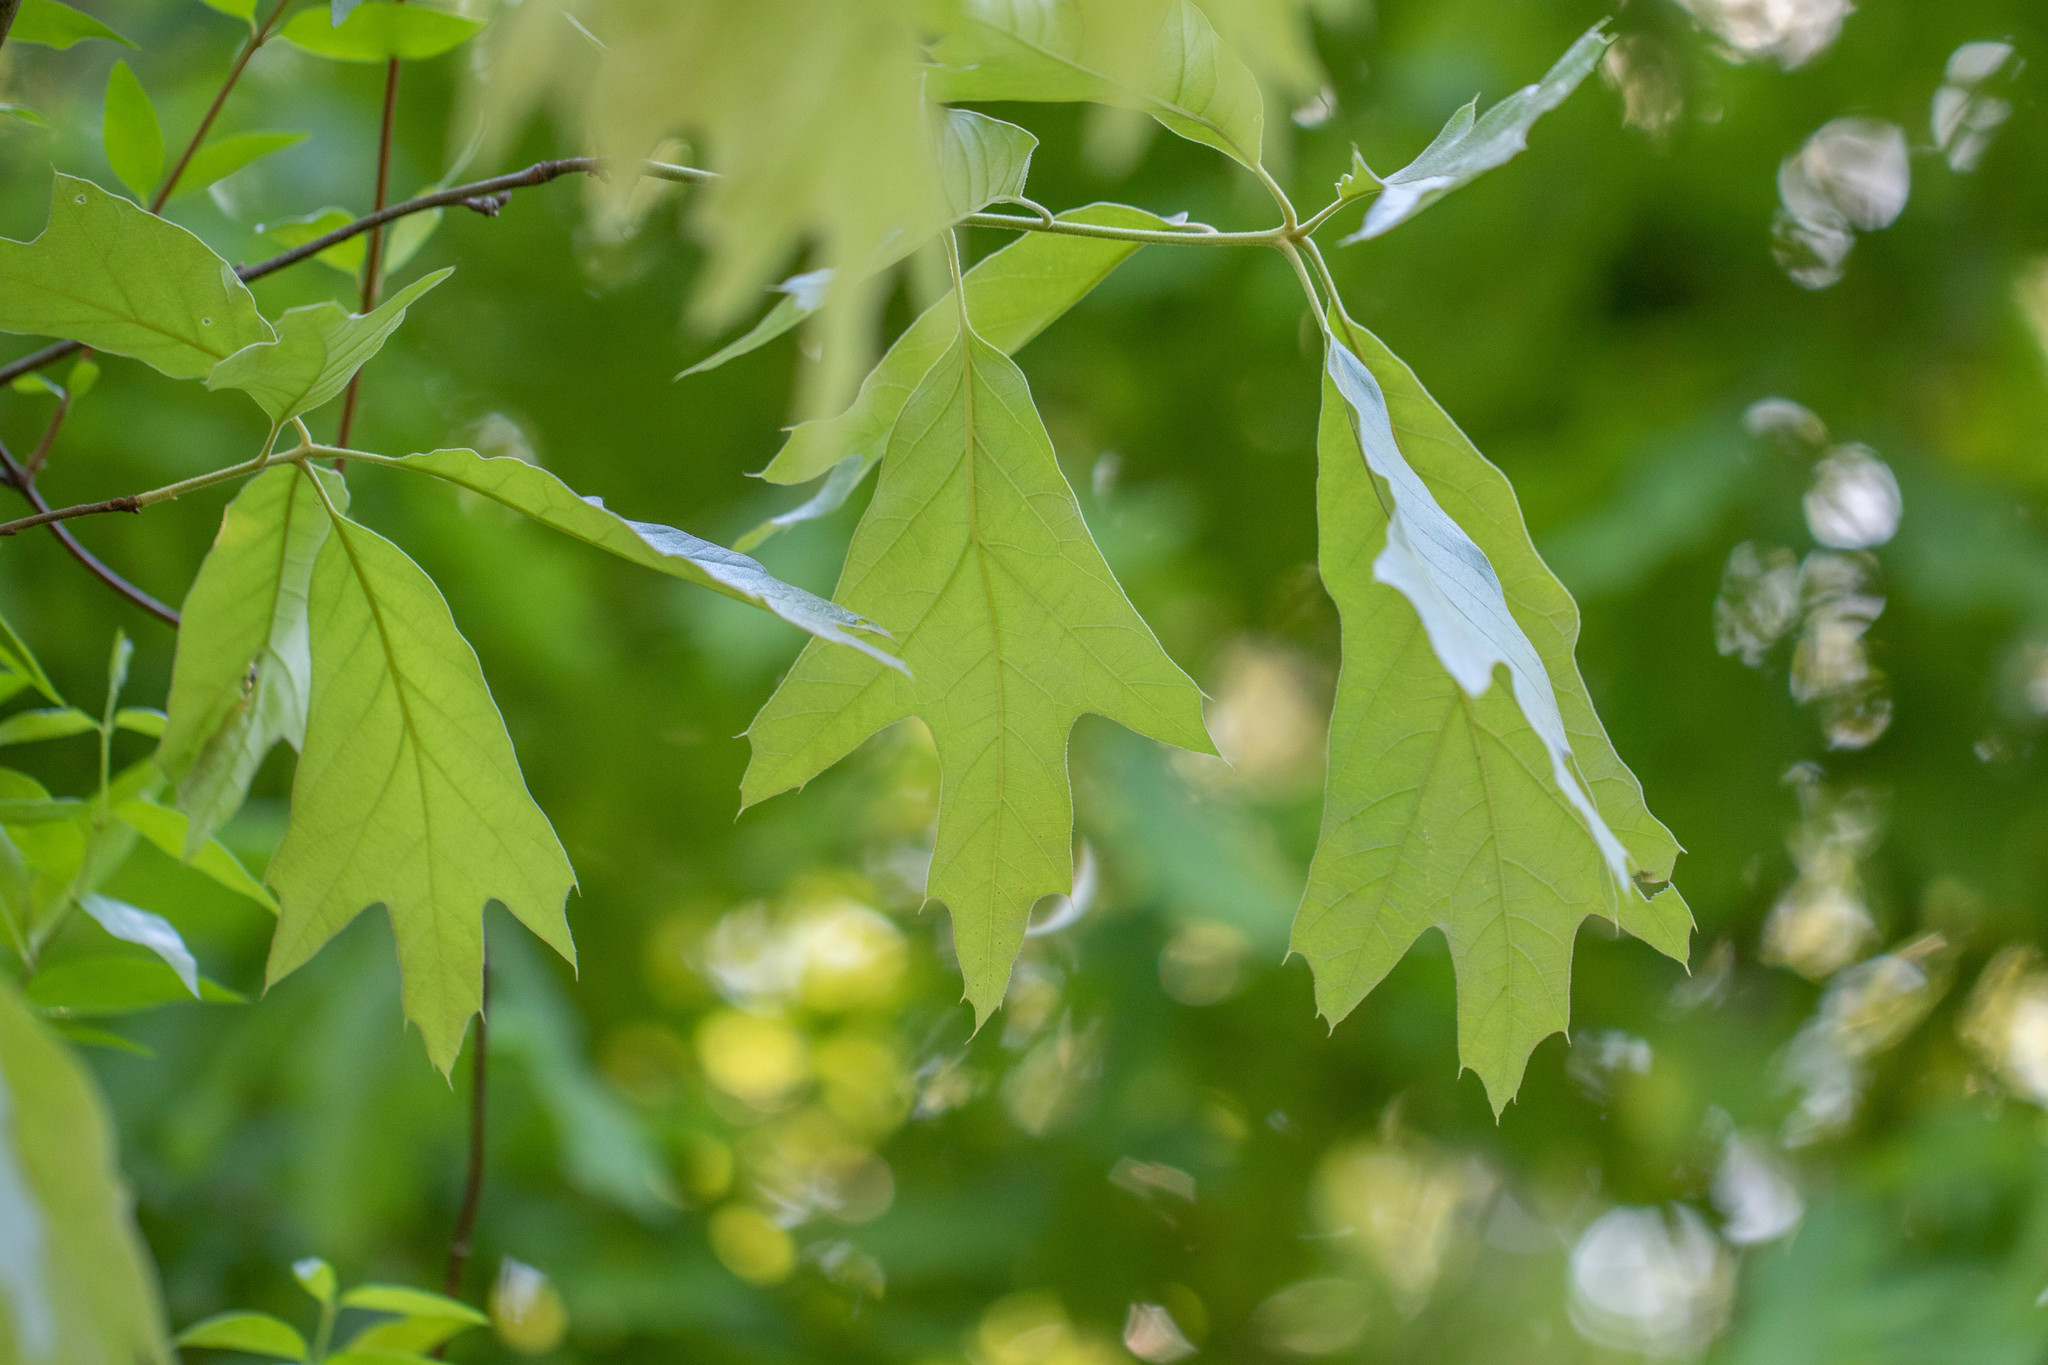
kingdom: Plantae
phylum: Tracheophyta
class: Magnoliopsida
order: Fagales
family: Fagaceae
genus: Quercus
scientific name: Quercus falcata
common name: Southern red oak
